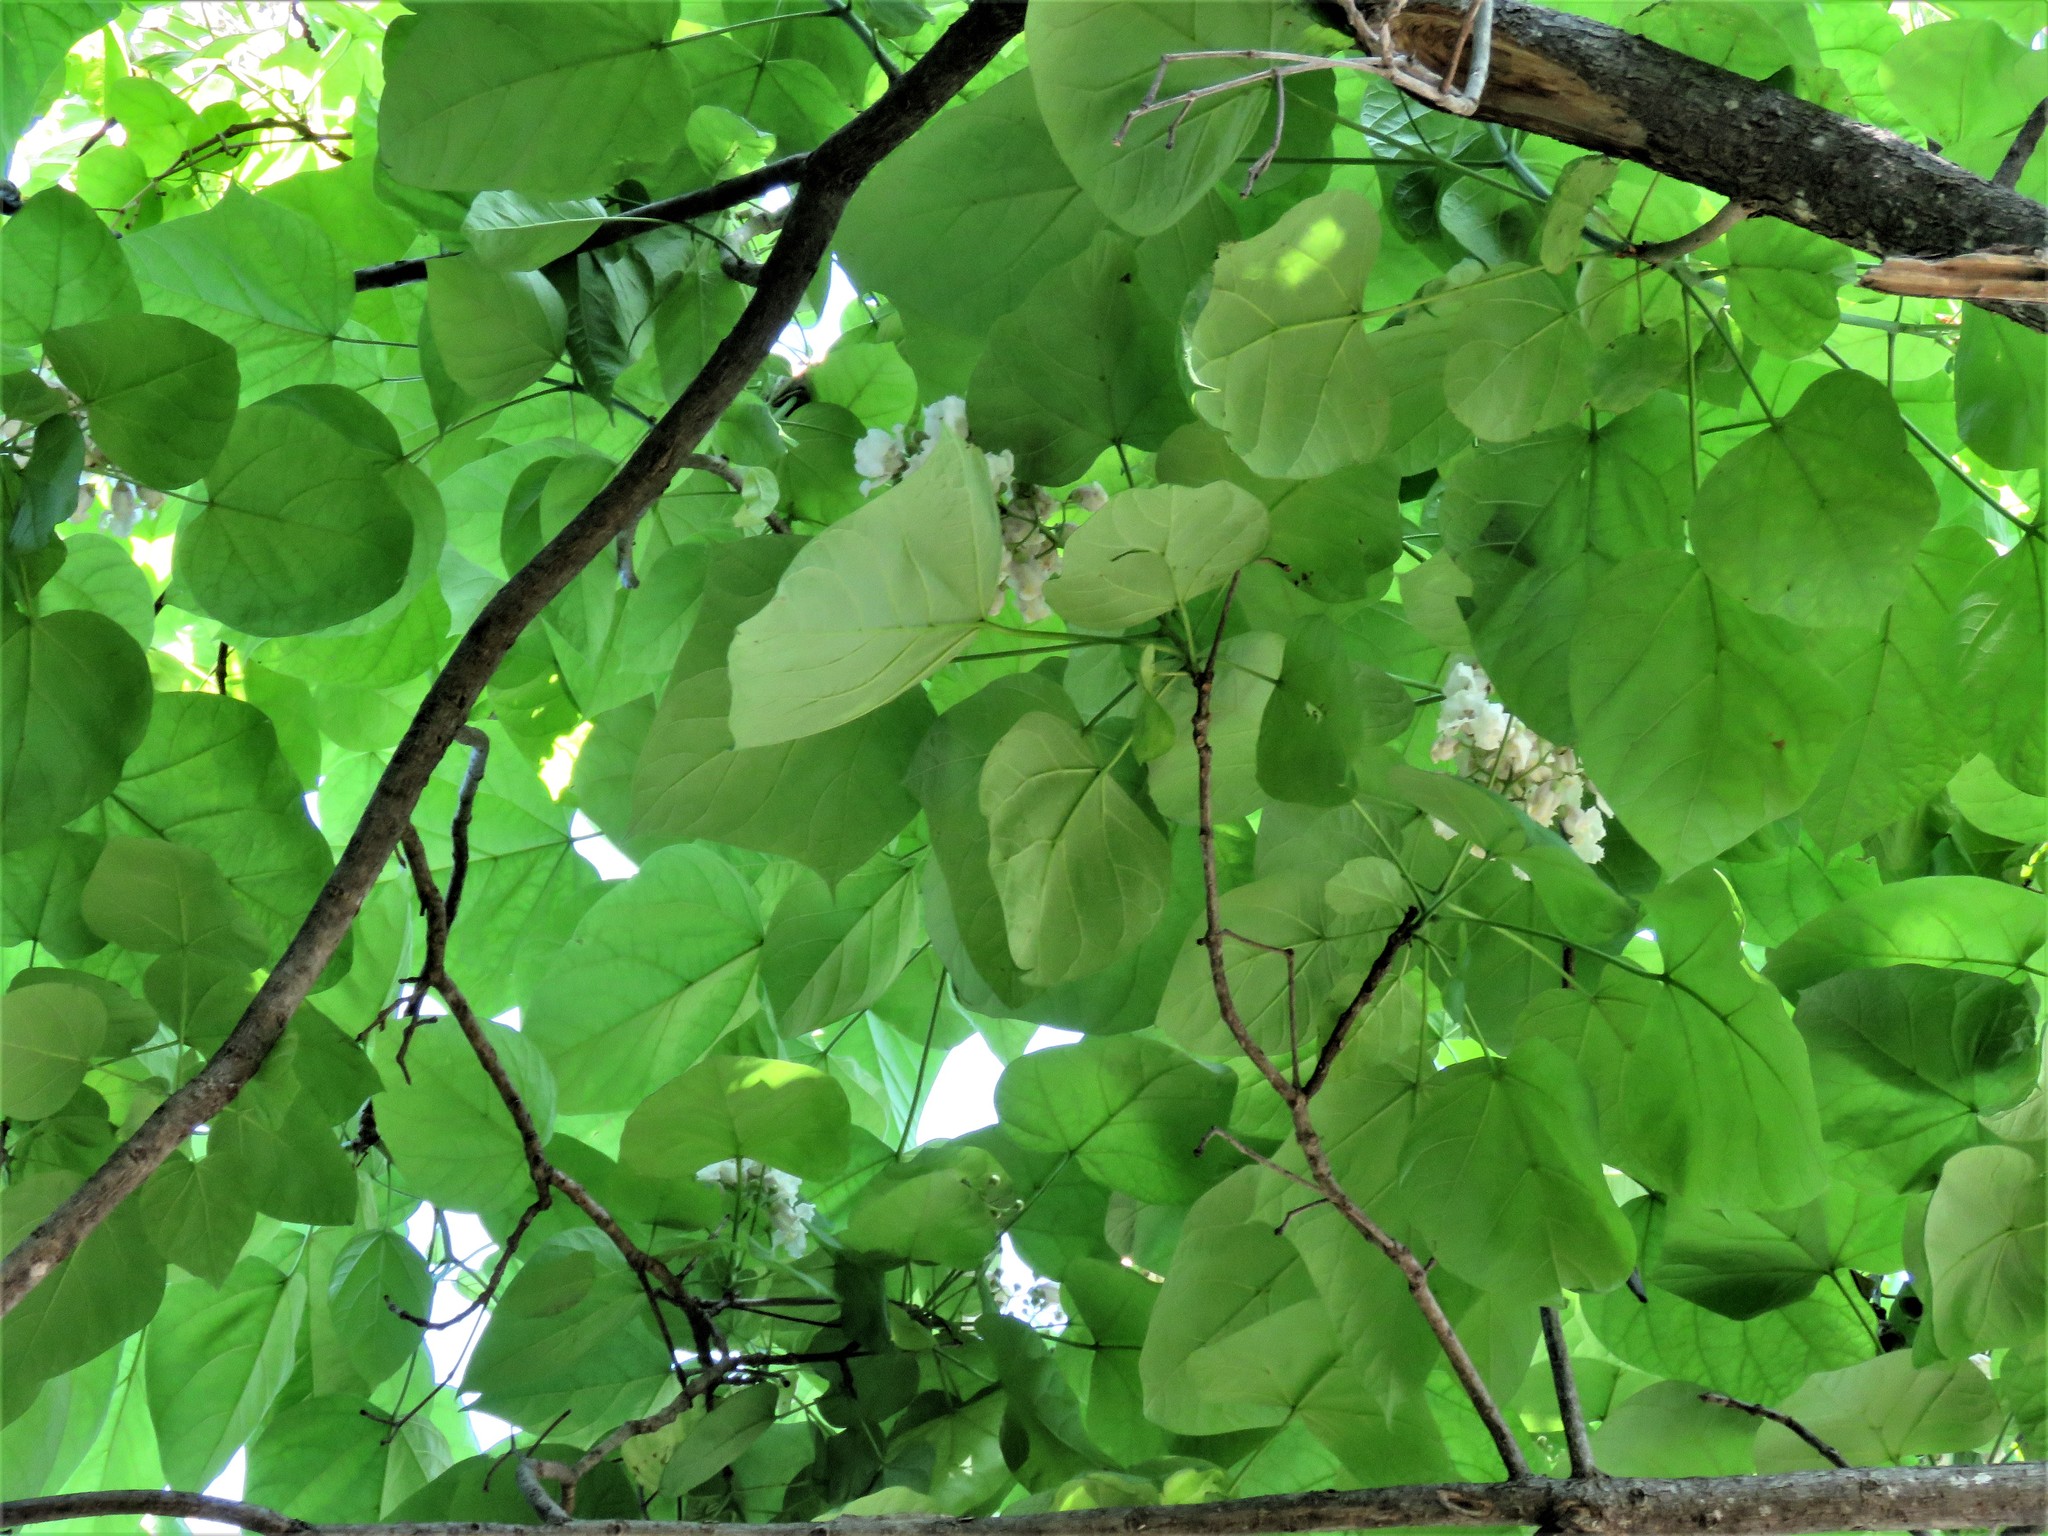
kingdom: Plantae
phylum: Tracheophyta
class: Magnoliopsida
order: Lamiales
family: Bignoniaceae
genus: Catalpa
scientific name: Catalpa speciosa
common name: Northern catalpa
